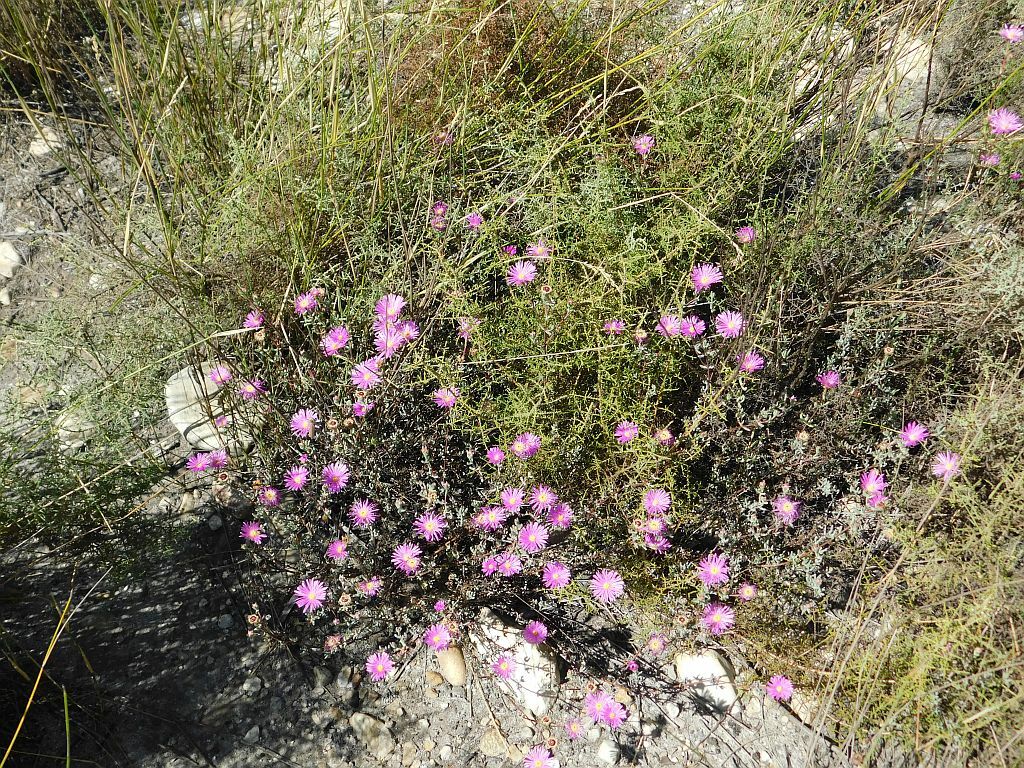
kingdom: Plantae
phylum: Tracheophyta
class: Magnoliopsida
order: Caryophyllales
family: Aizoaceae
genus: Lampranthus
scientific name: Lampranthus falcatus
